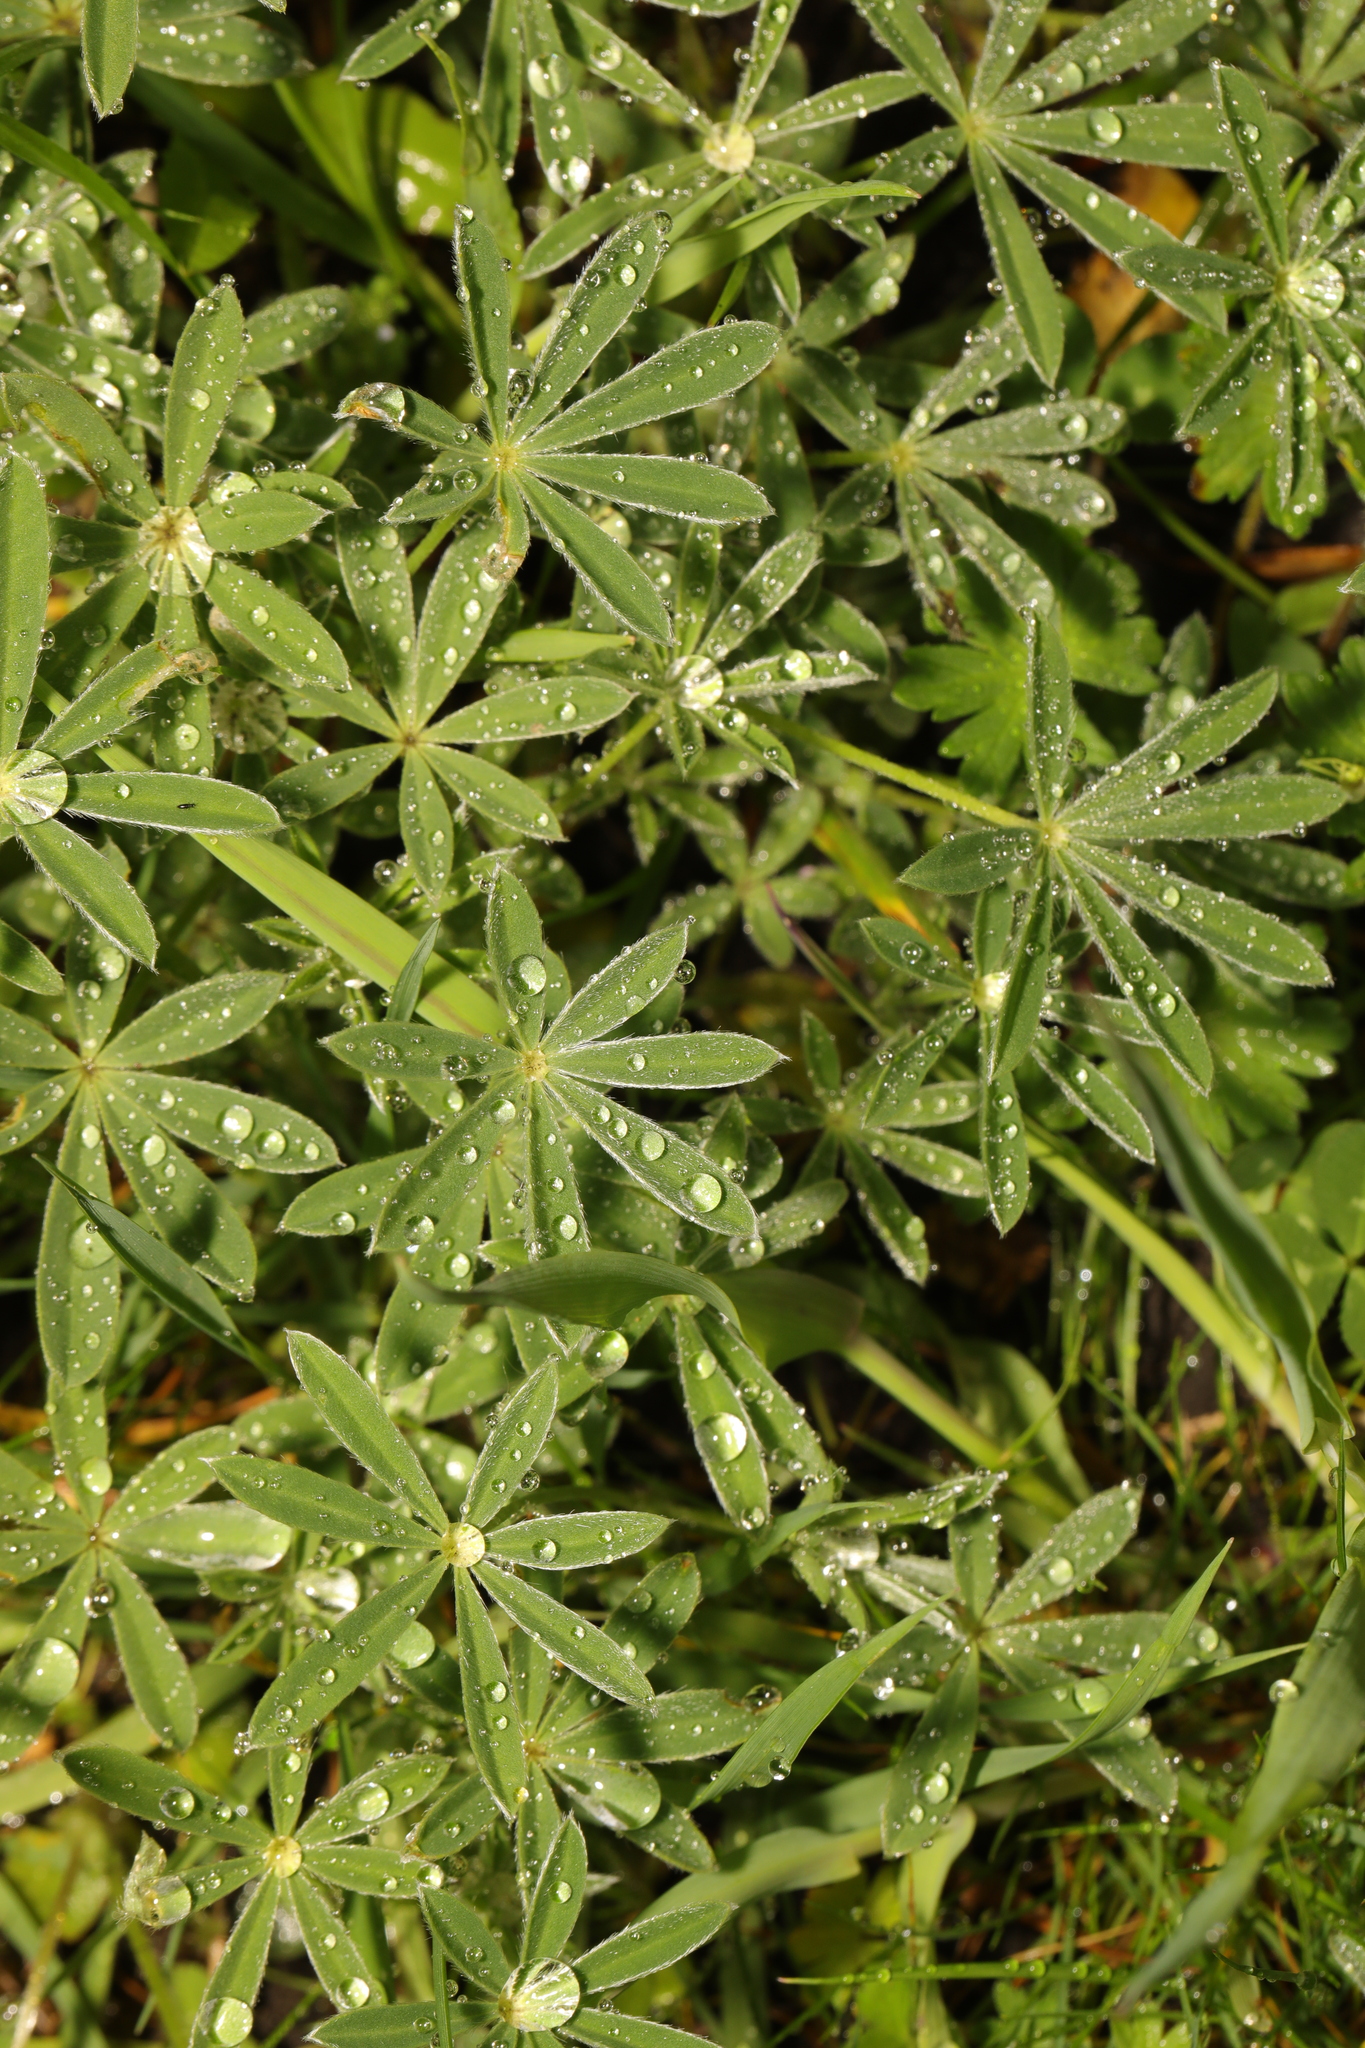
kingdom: Plantae
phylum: Tracheophyta
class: Magnoliopsida
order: Fabales
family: Fabaceae
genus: Lupinus
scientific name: Lupinus arboreus
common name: Yellow bush lupine
